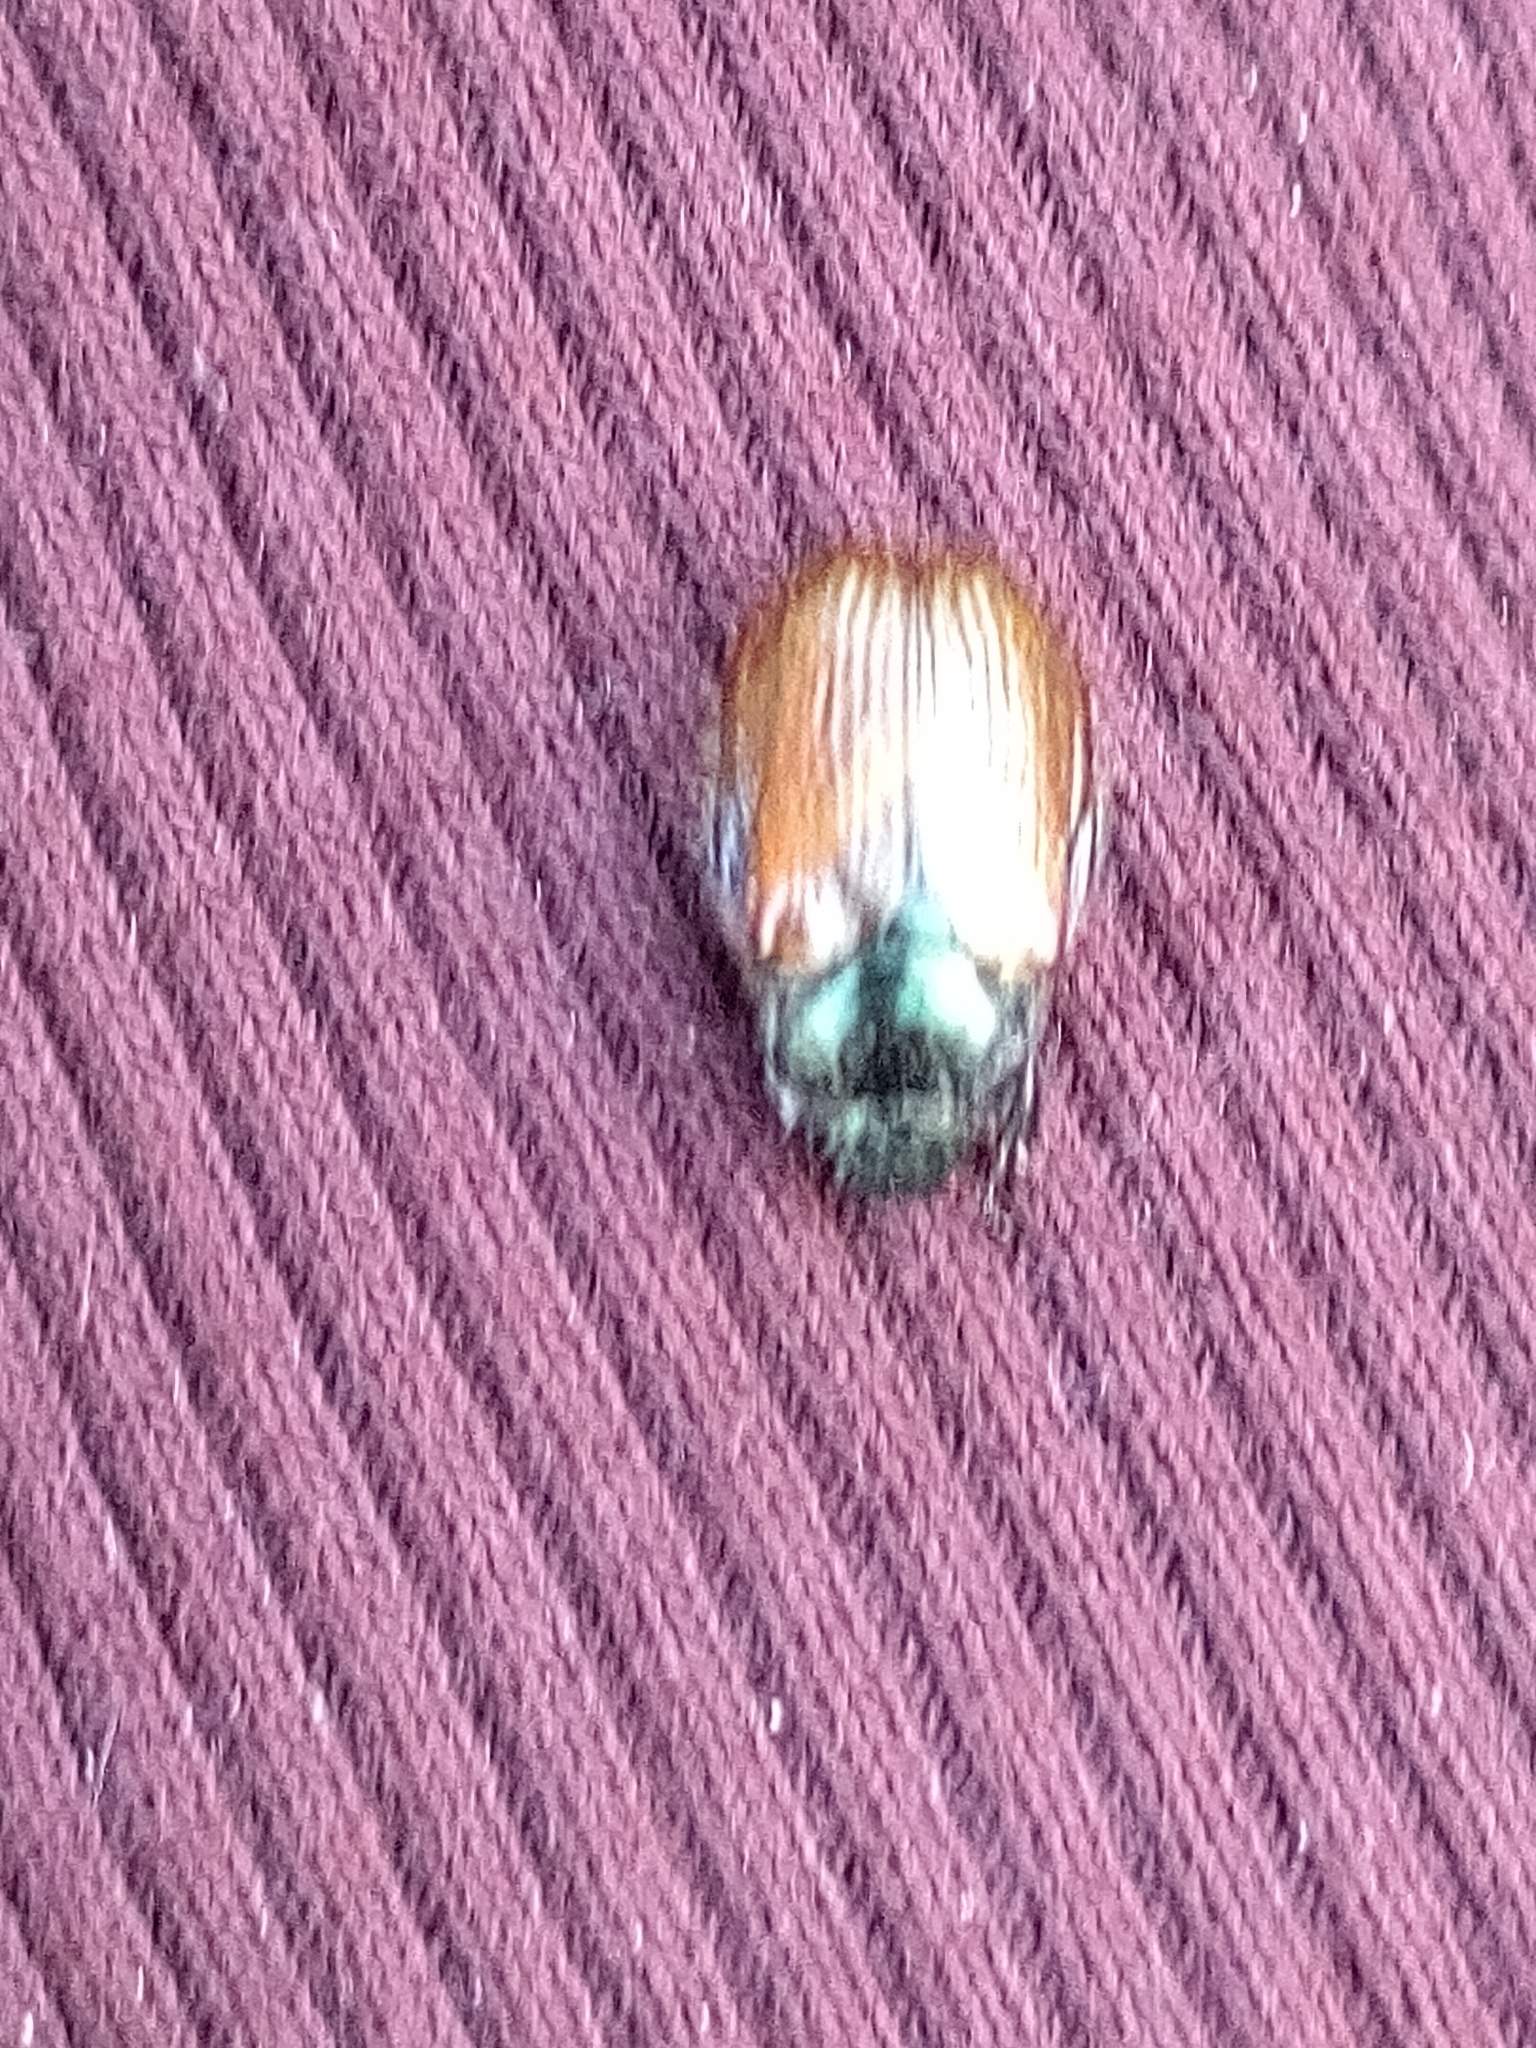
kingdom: Animalia
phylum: Arthropoda
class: Insecta
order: Coleoptera
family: Scarabaeidae
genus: Phyllopertha
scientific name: Phyllopertha horticola
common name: Garden chafer
